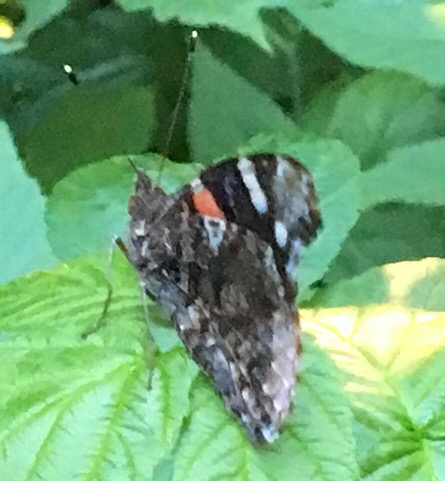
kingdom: Animalia
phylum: Arthropoda
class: Insecta
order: Lepidoptera
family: Nymphalidae
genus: Vanessa
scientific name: Vanessa atalanta
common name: Red admiral
